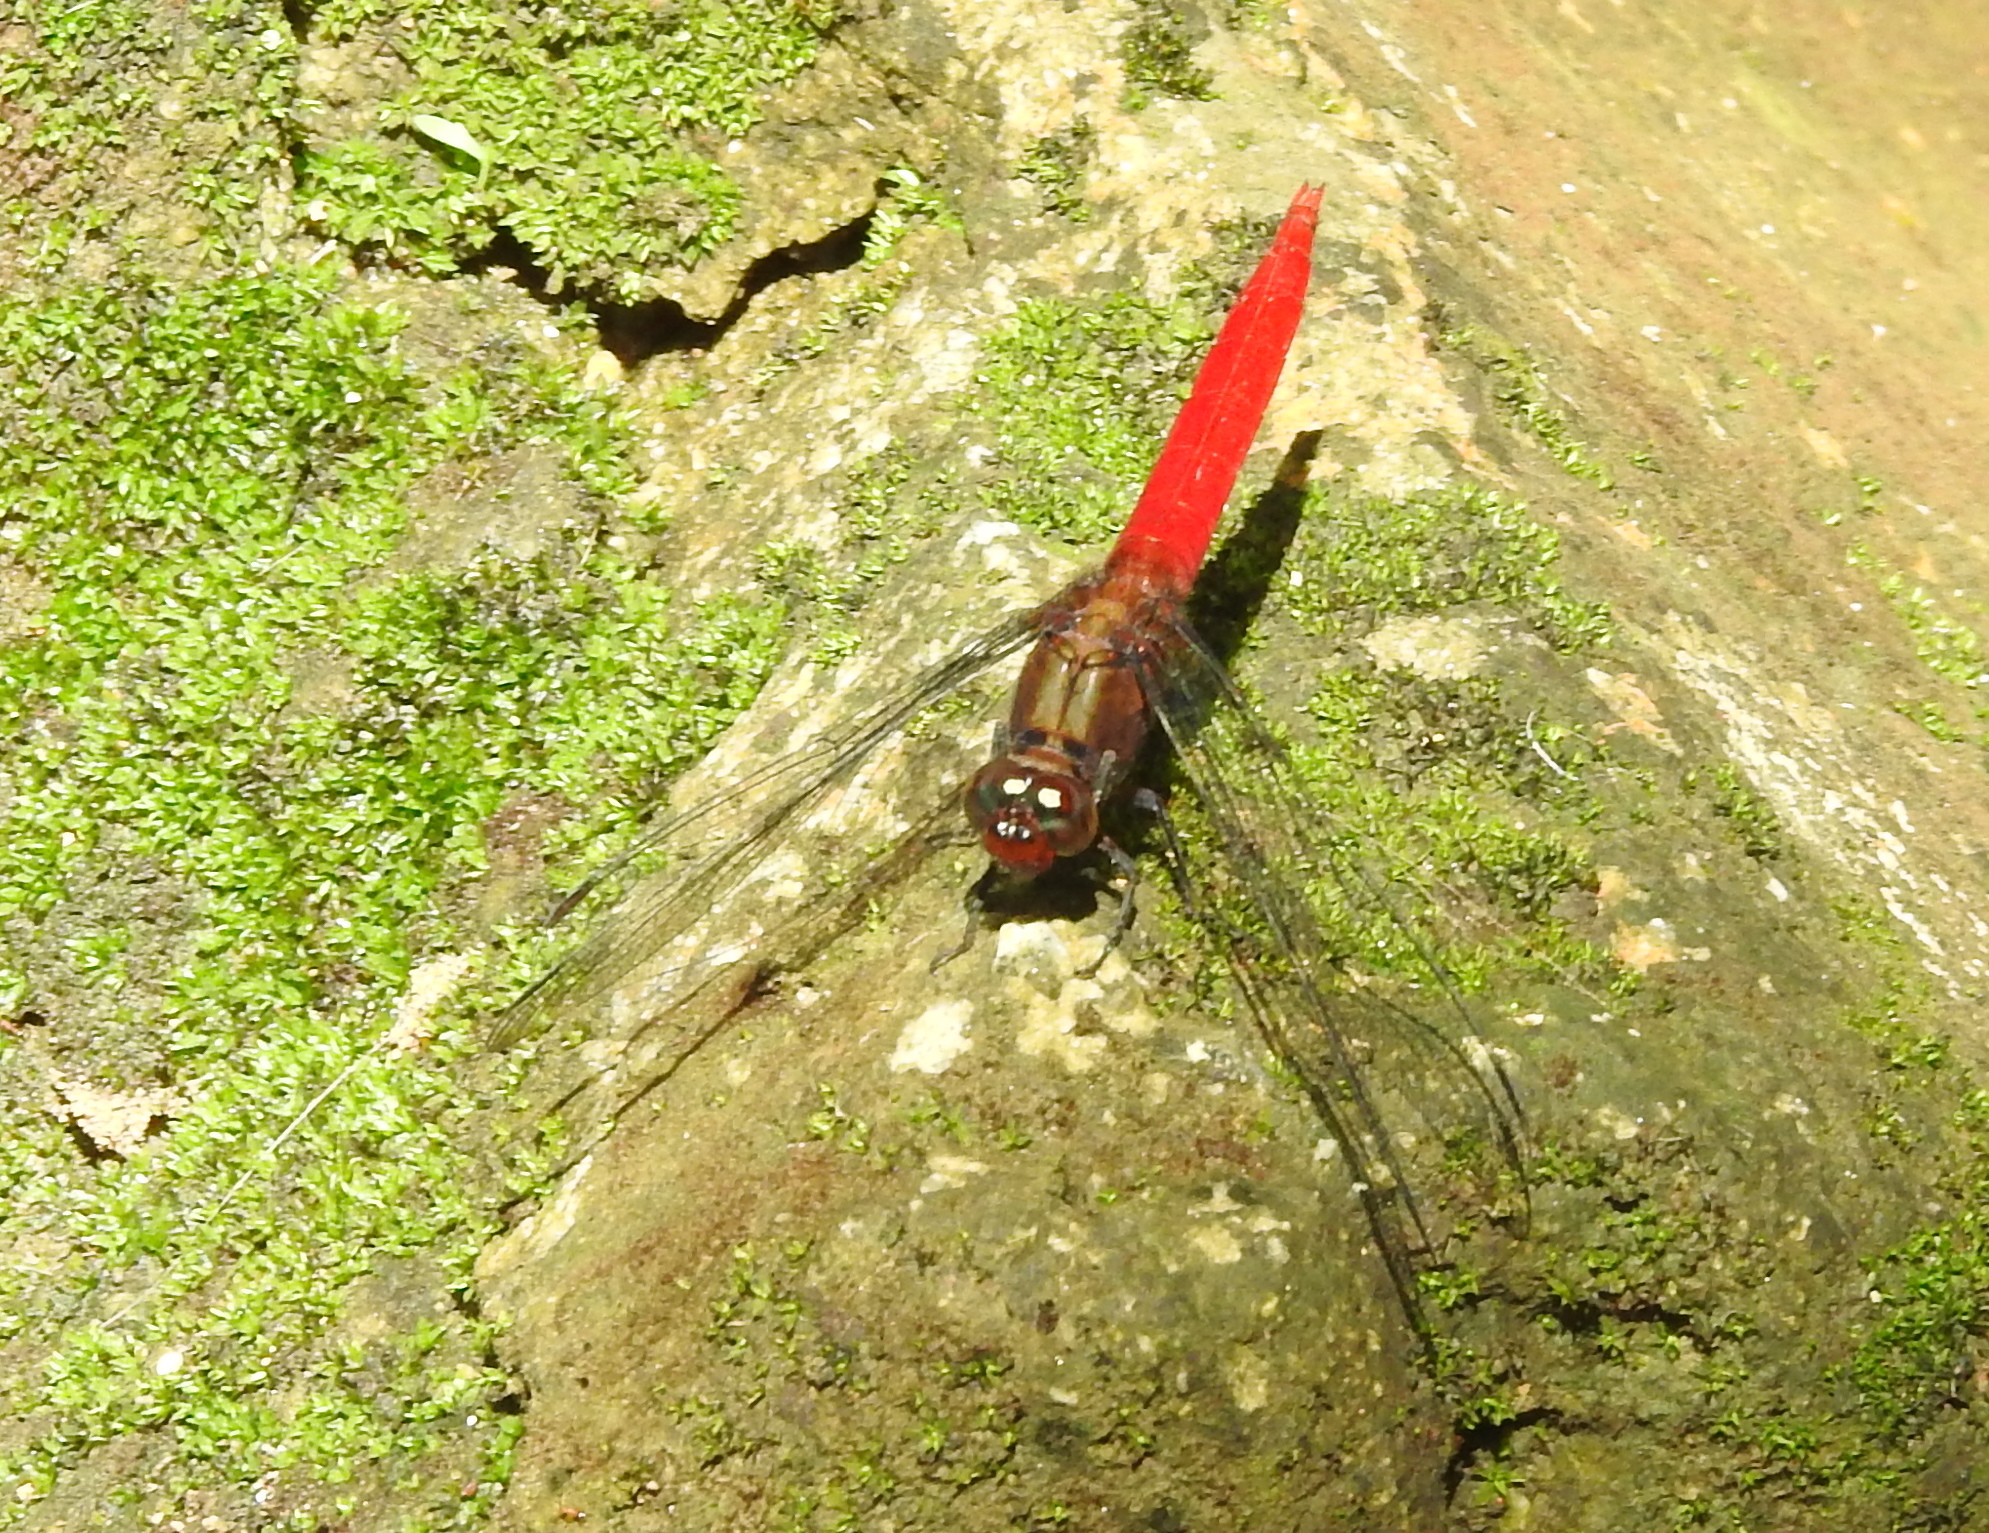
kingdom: Animalia
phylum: Arthropoda
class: Insecta
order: Odonata
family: Libellulidae
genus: Orthetrum
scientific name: Orthetrum testaceum
